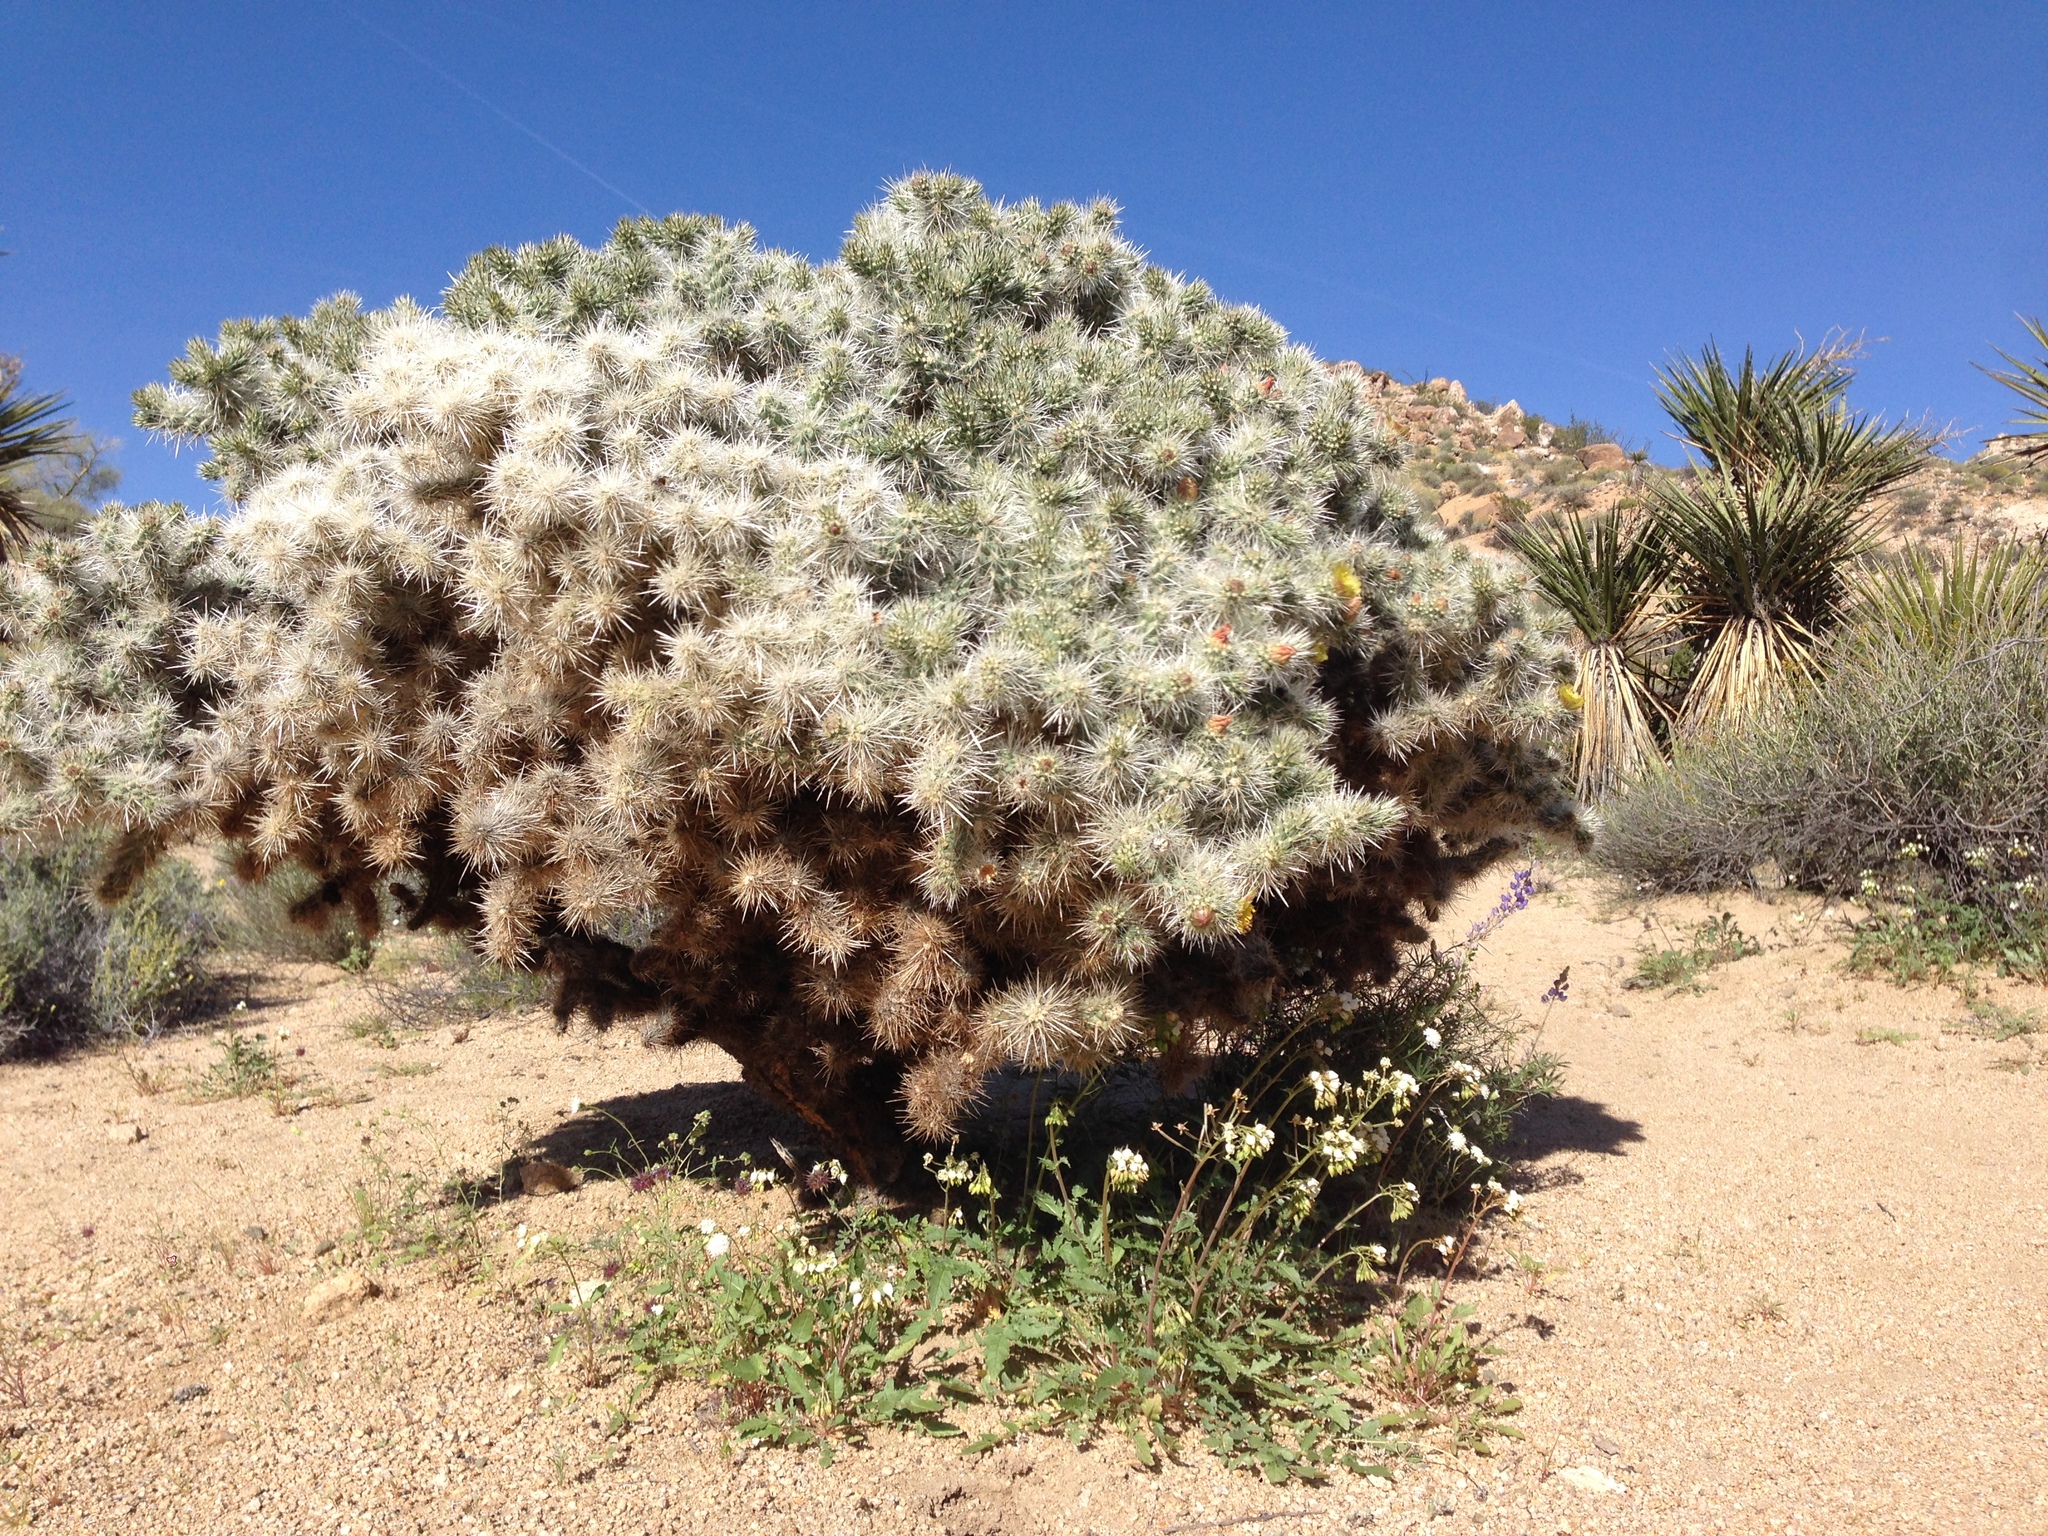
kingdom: Plantae
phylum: Tracheophyta
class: Magnoliopsida
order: Myrtales
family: Onagraceae
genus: Eremothera
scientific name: Eremothera boothii
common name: Booth's evening primrose
